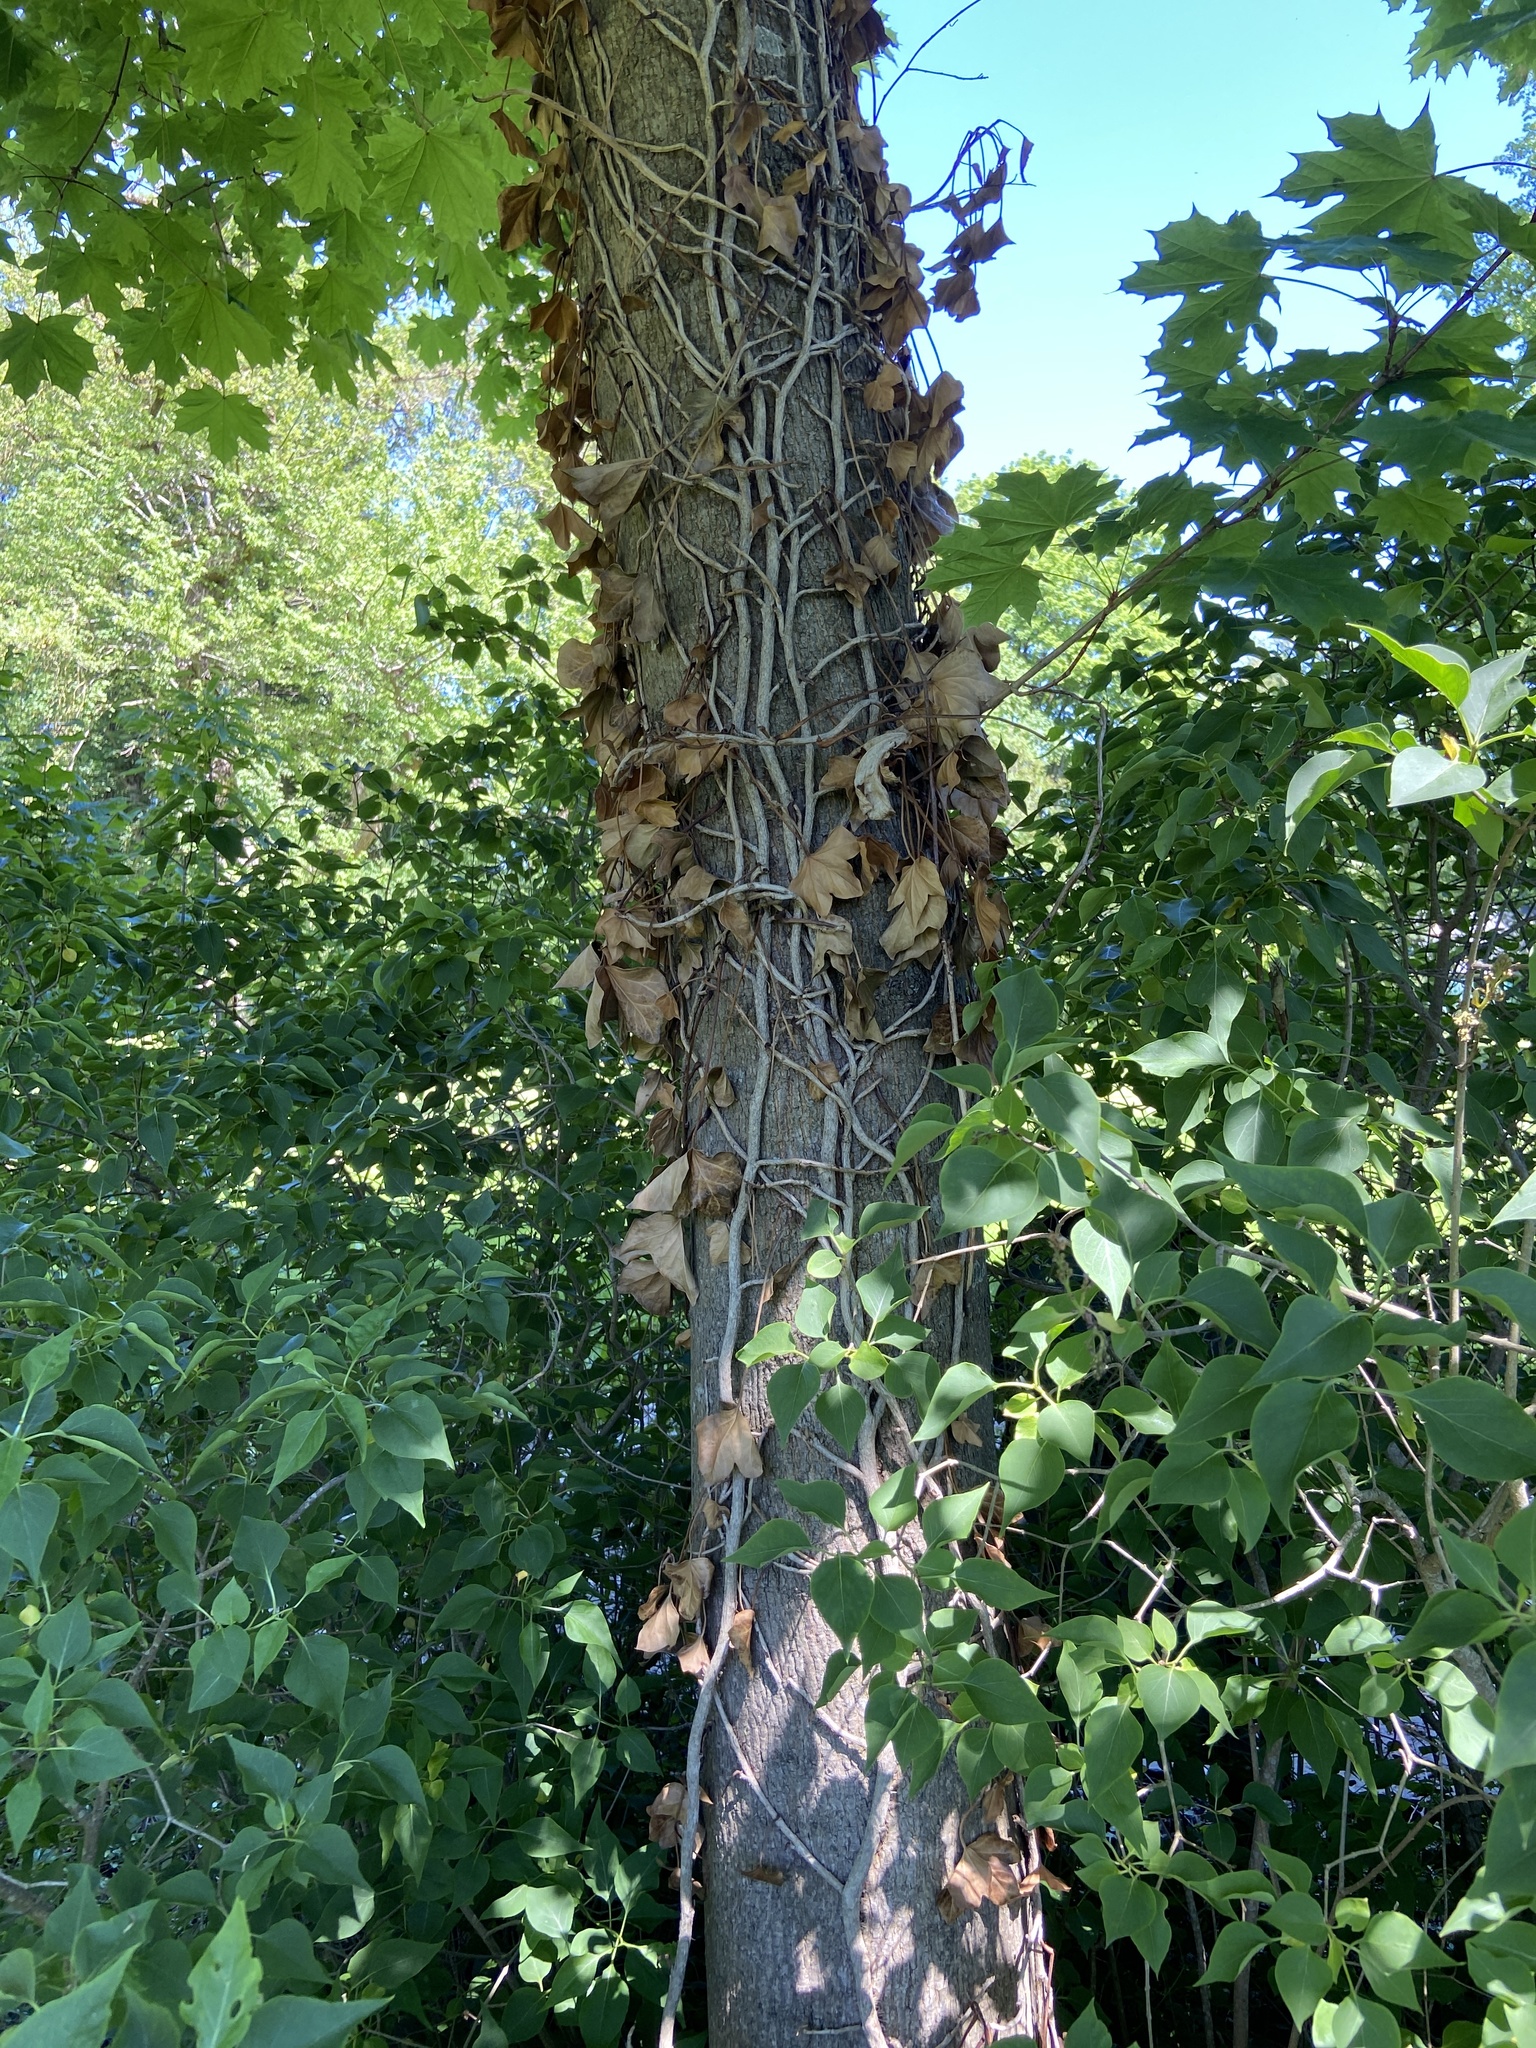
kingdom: Plantae
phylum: Tracheophyta
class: Magnoliopsida
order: Sapindales
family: Sapindaceae
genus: Acer
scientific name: Acer platanoides
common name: Norway maple
